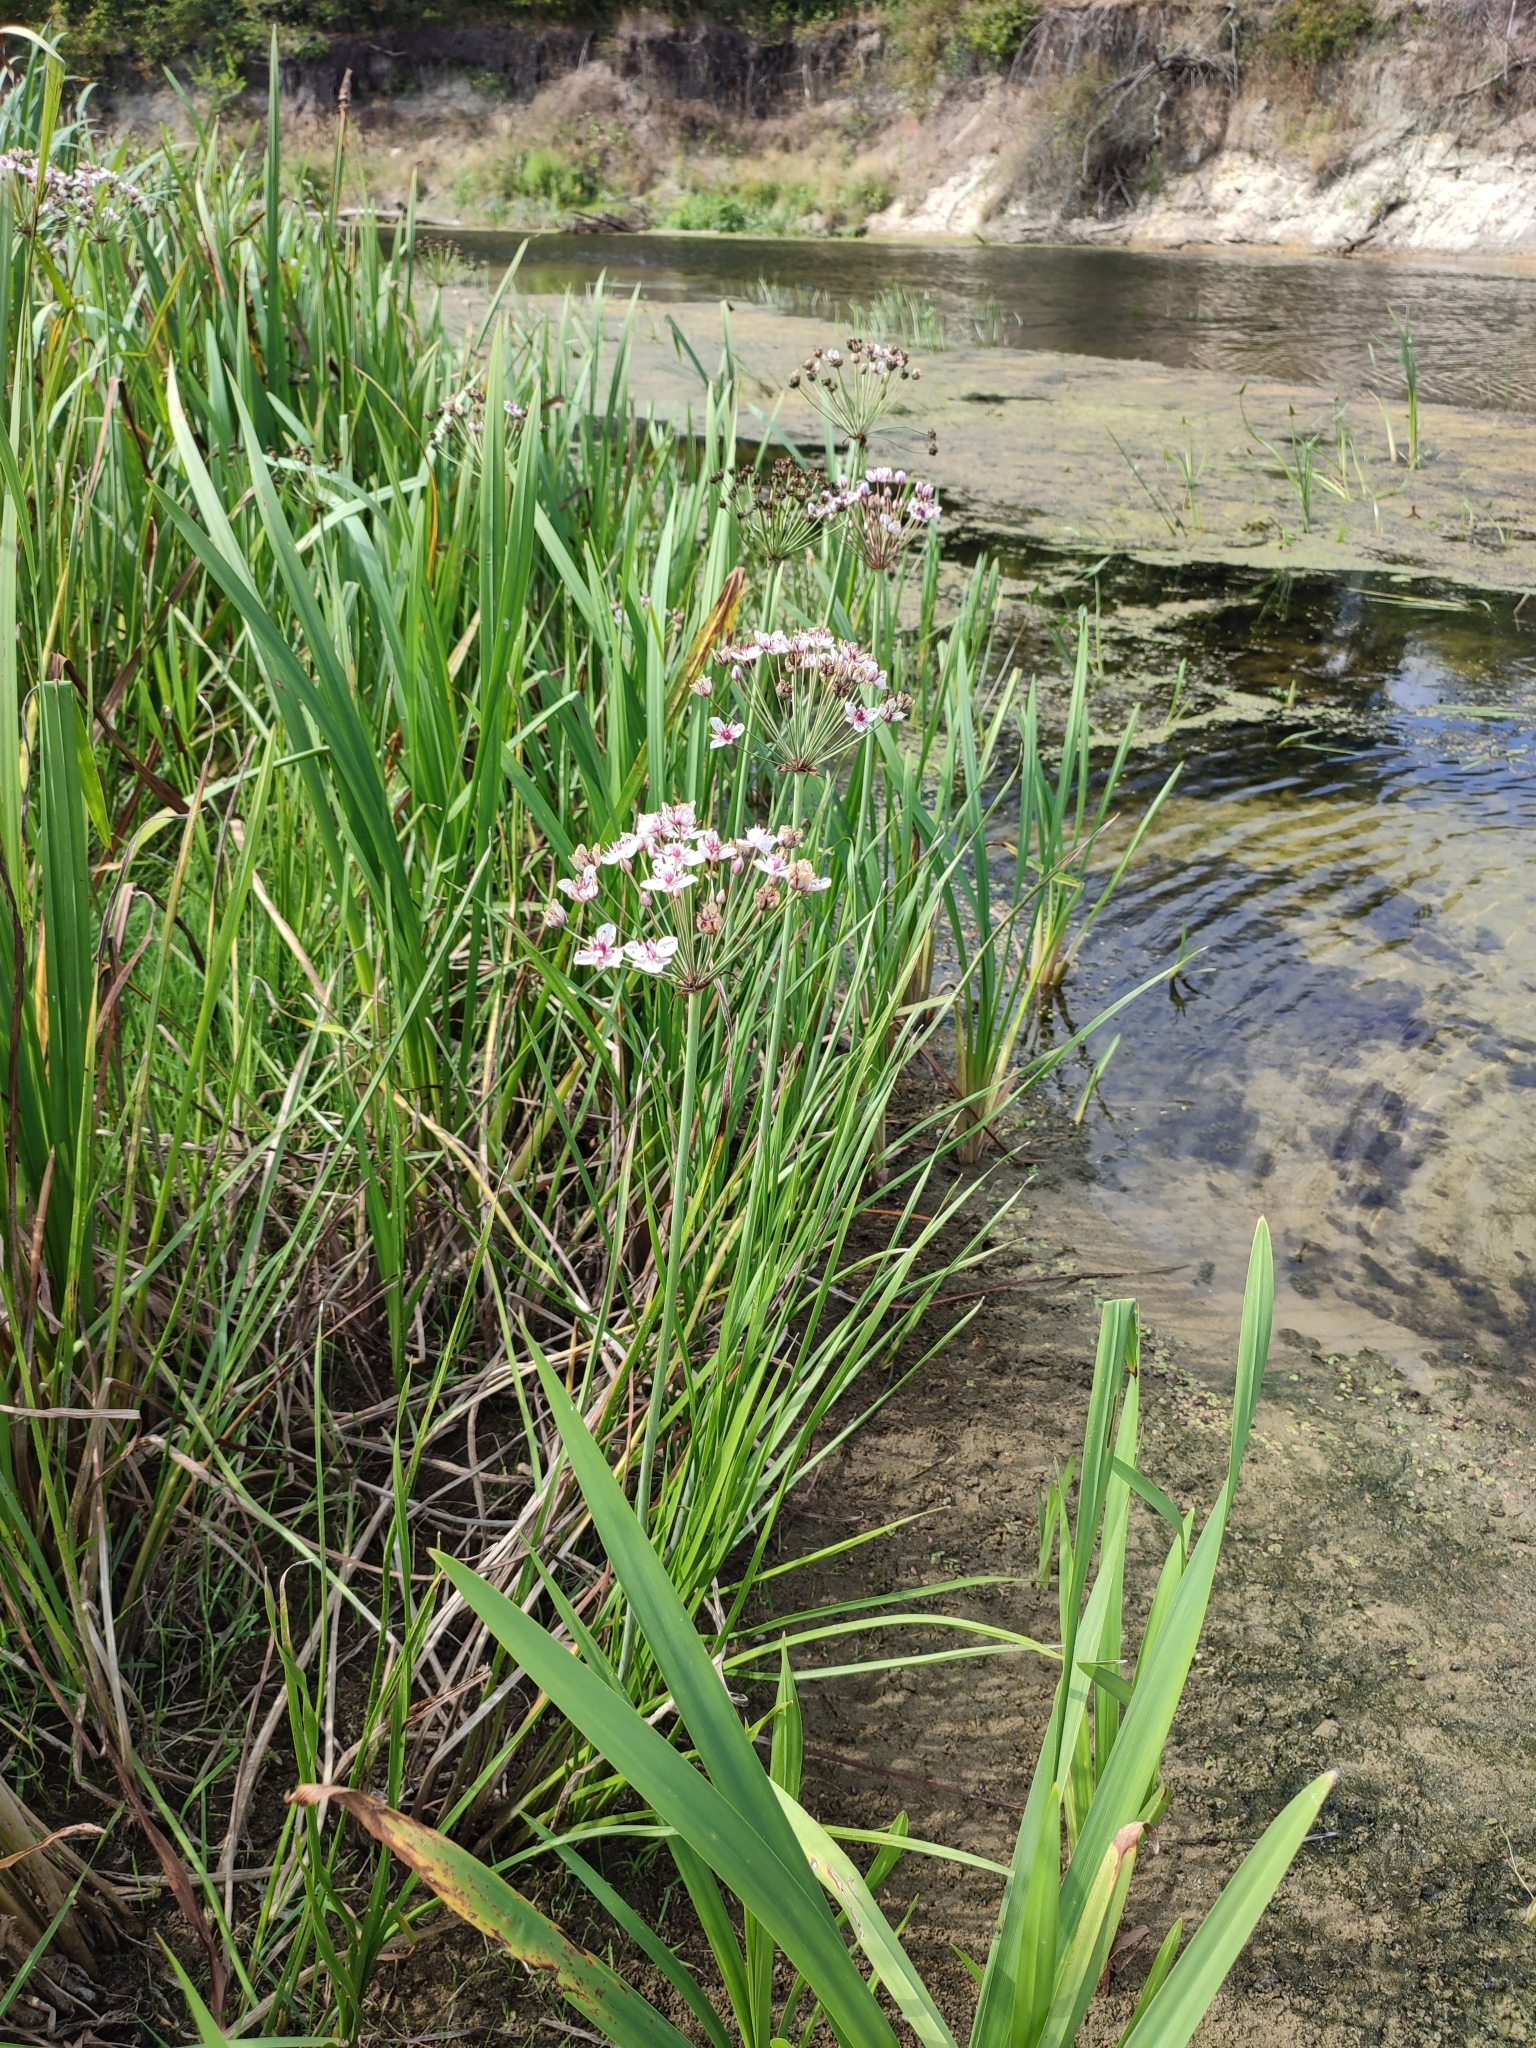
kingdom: Plantae
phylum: Tracheophyta
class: Liliopsida
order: Alismatales
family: Butomaceae
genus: Butomus
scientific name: Butomus umbellatus
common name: Flowering-rush
